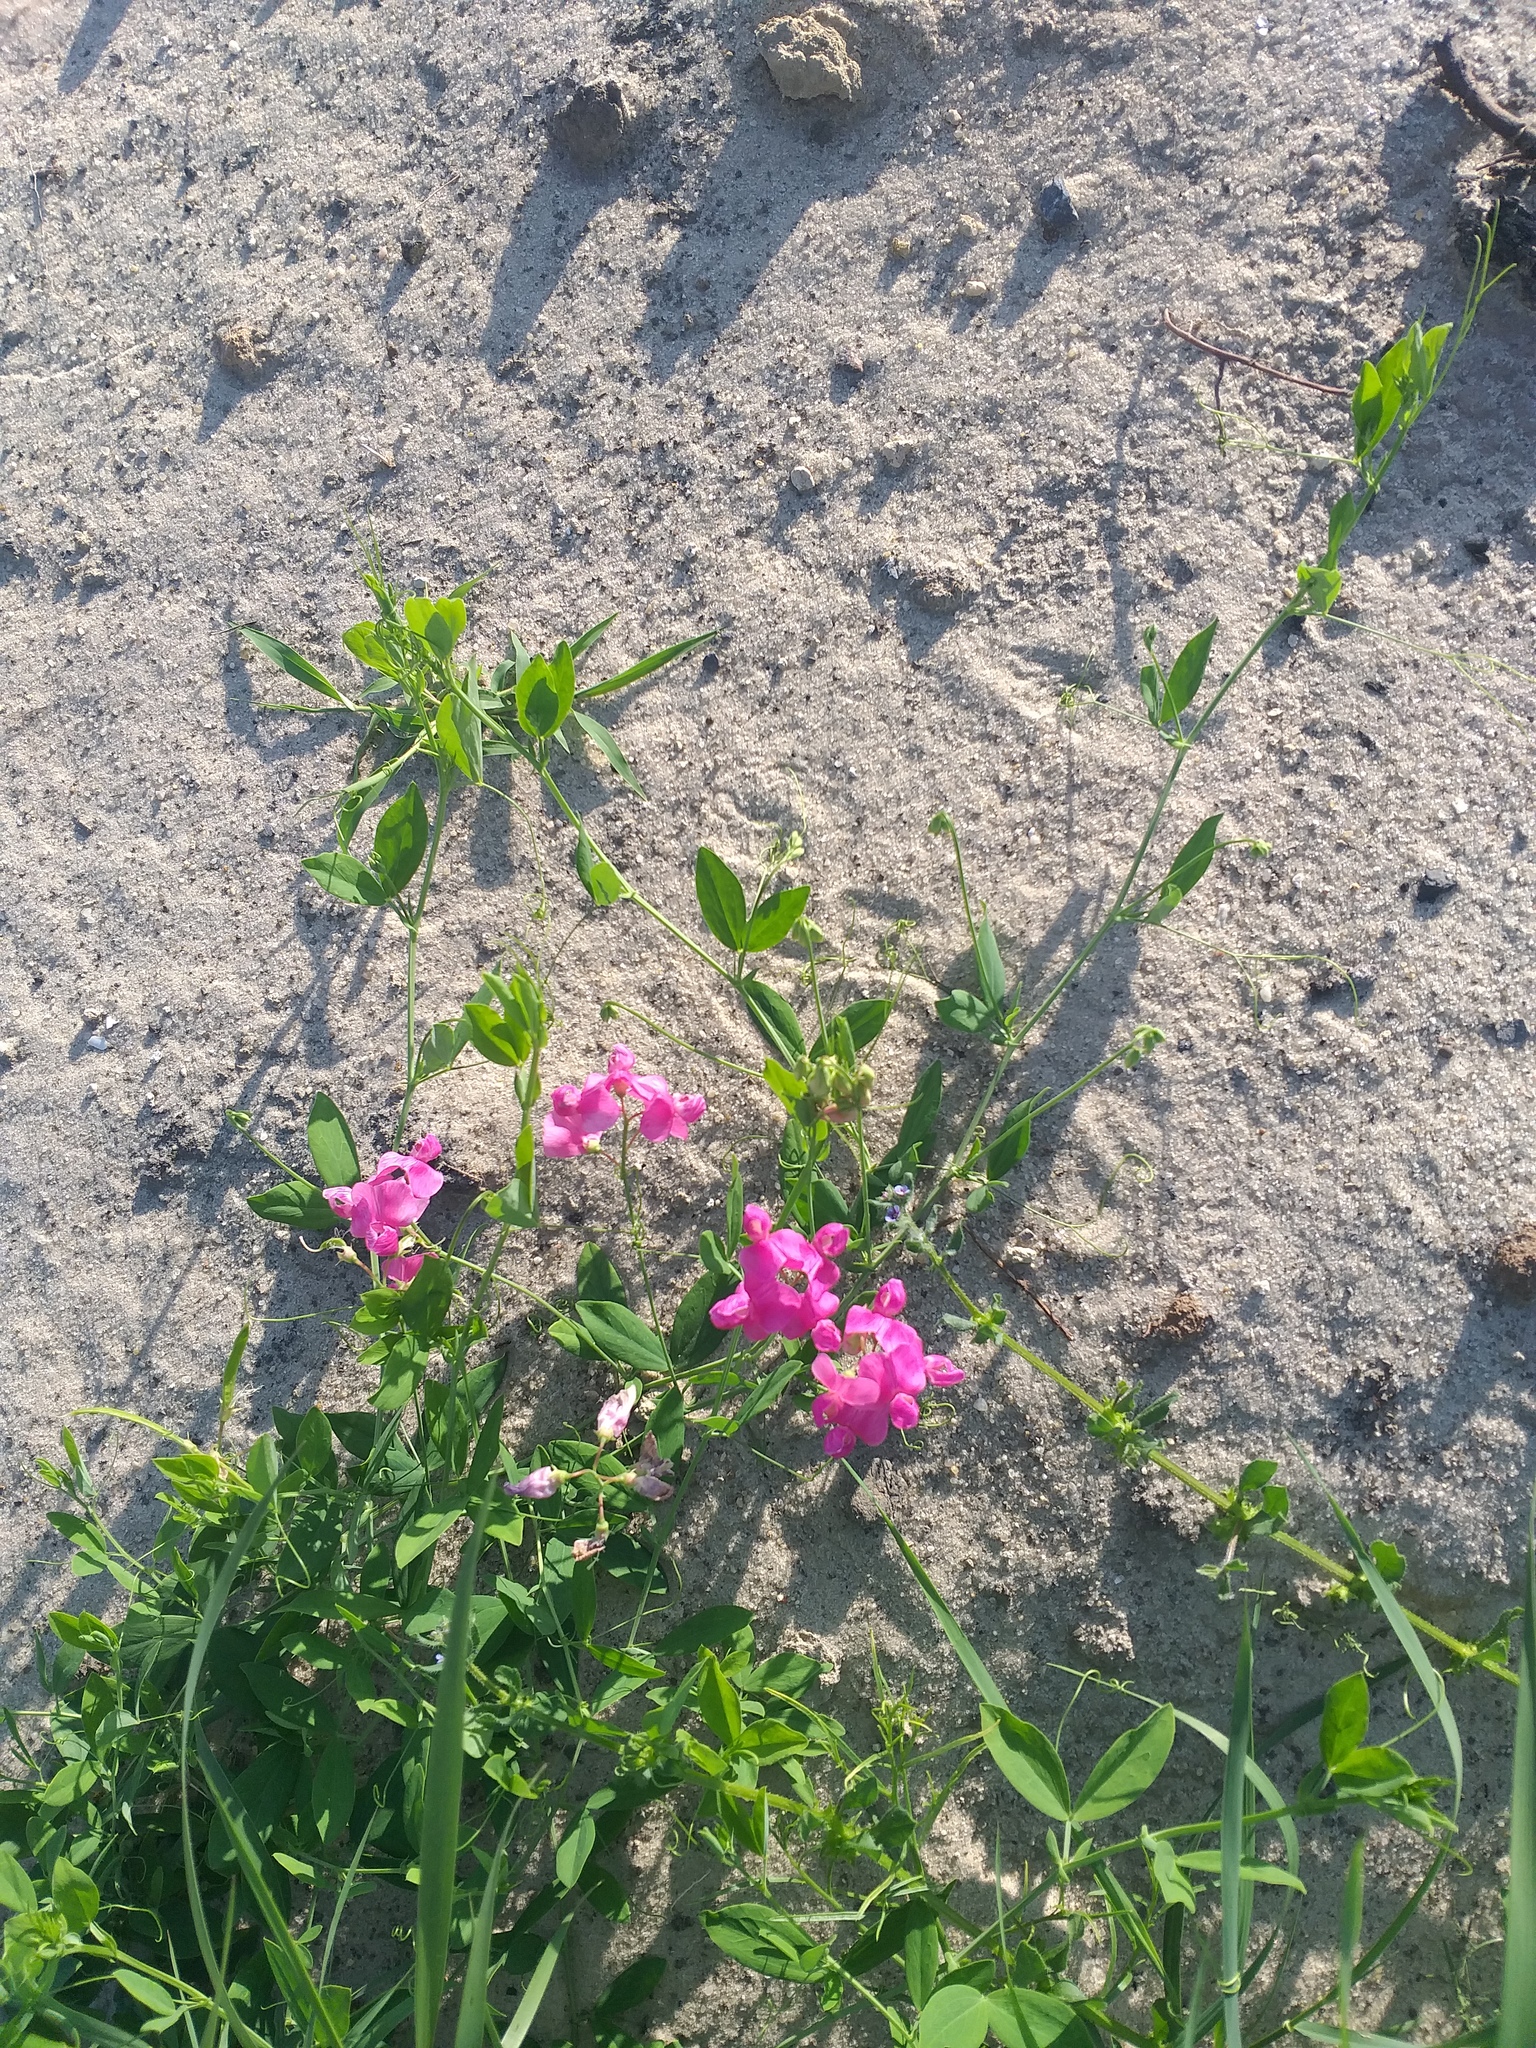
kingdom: Plantae
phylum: Tracheophyta
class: Magnoliopsida
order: Fabales
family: Fabaceae
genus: Lathyrus
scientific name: Lathyrus tuberosus
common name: Tuberous pea
